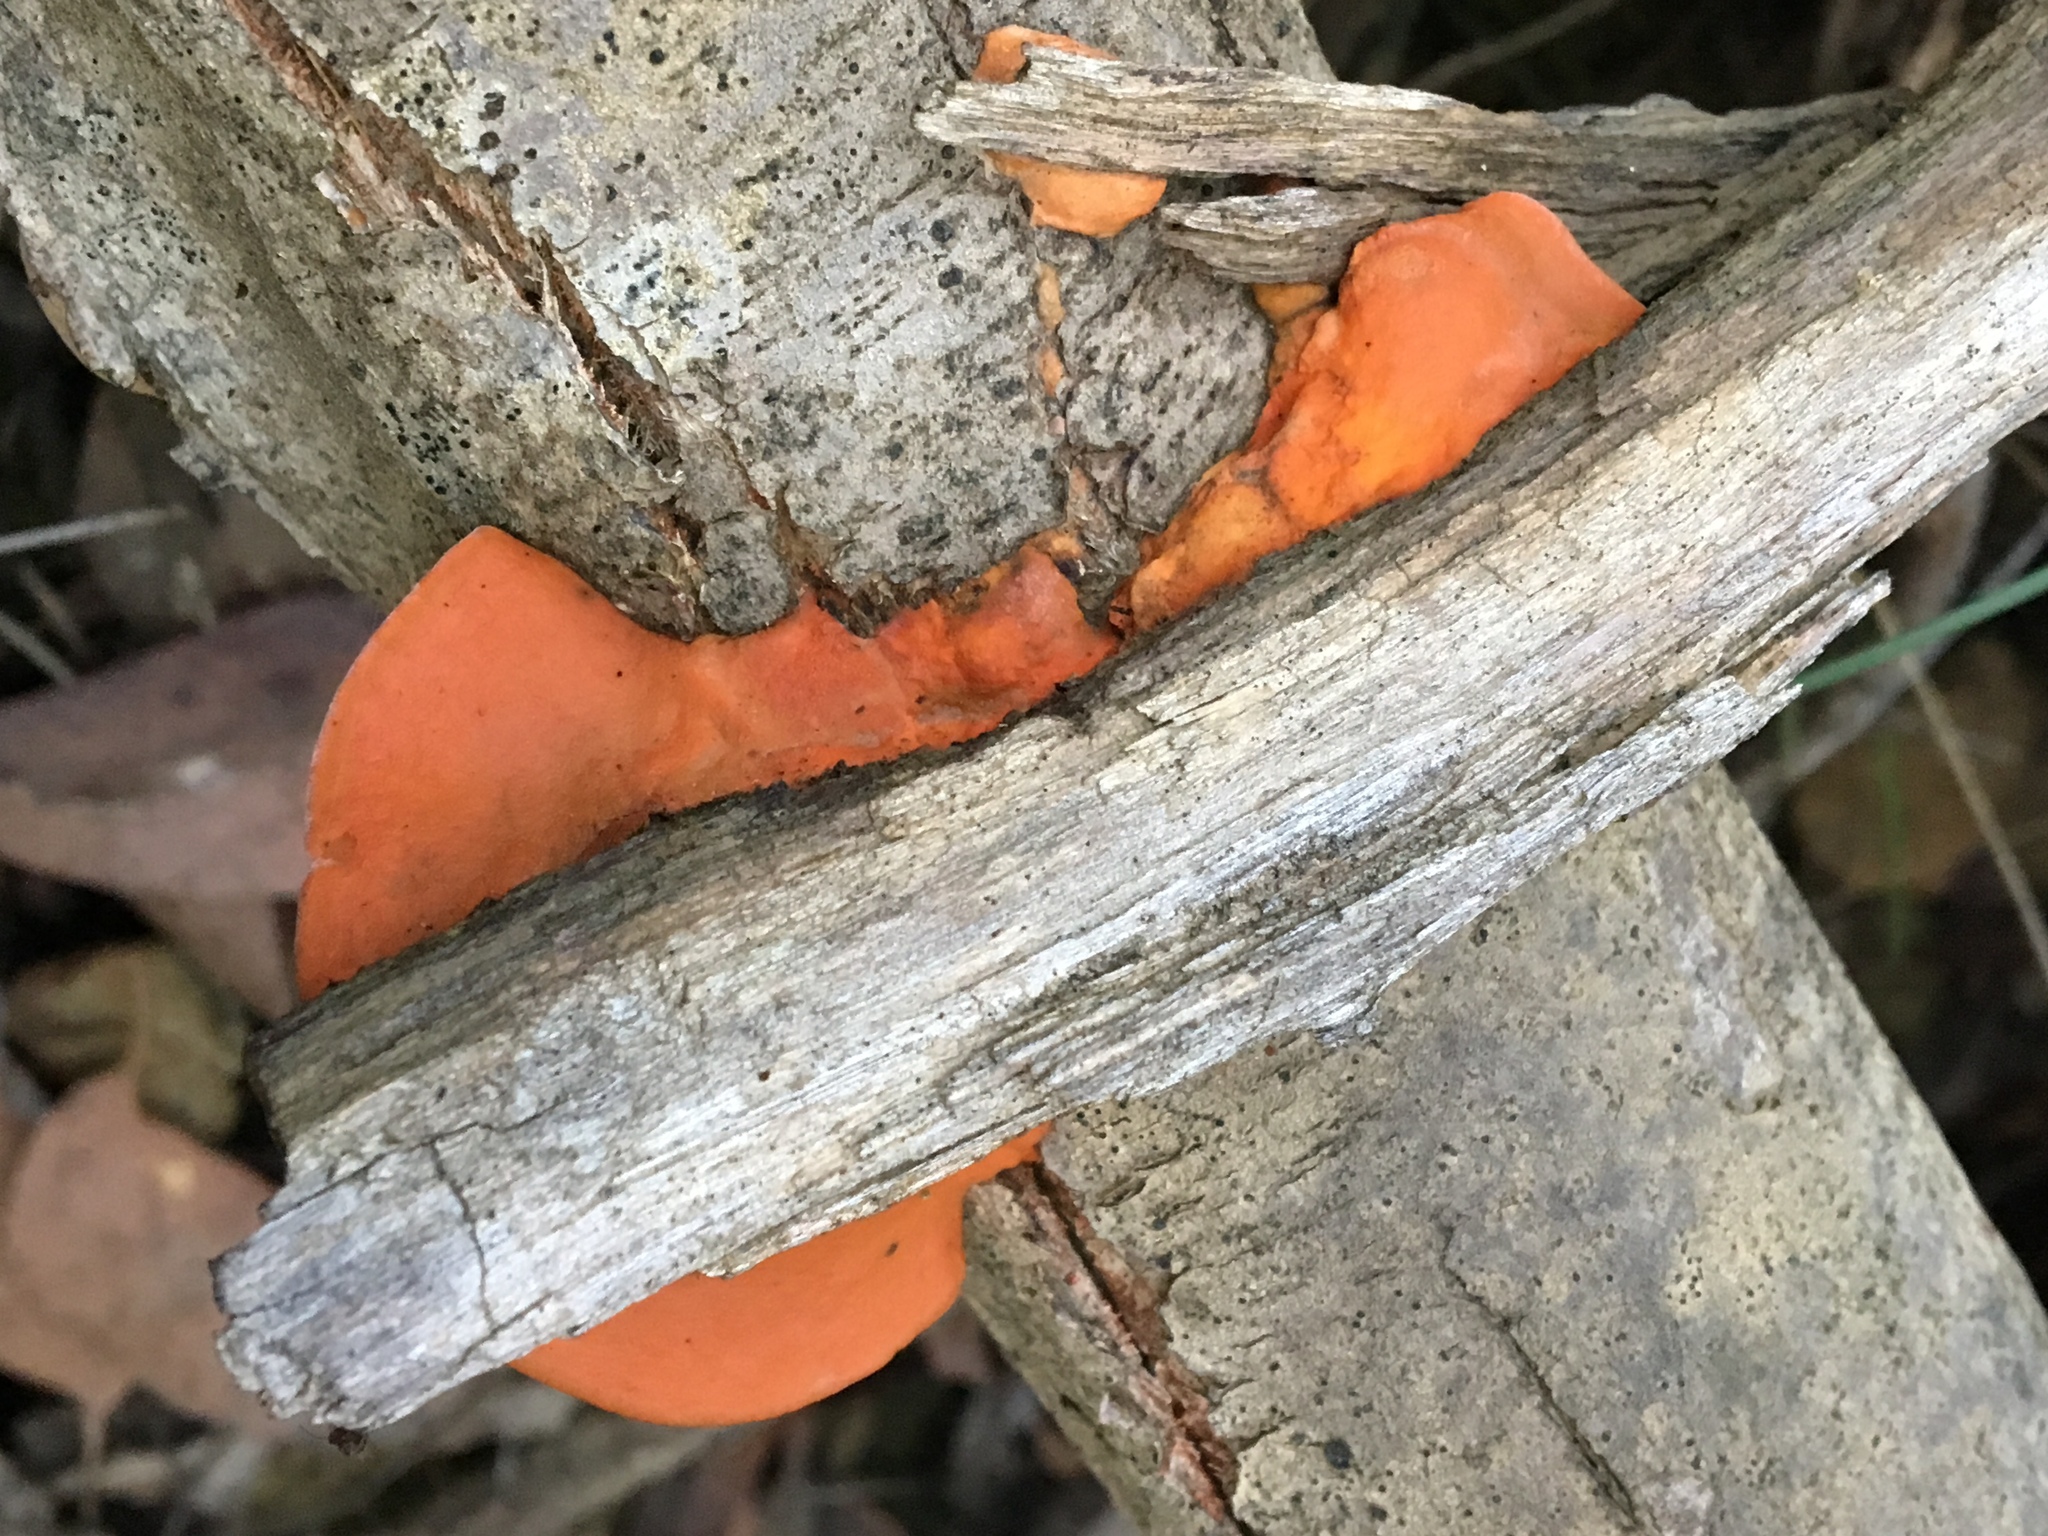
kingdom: Fungi
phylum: Basidiomycota
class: Agaricomycetes
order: Polyporales
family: Polyporaceae
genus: Trametes
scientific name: Trametes coccinea
